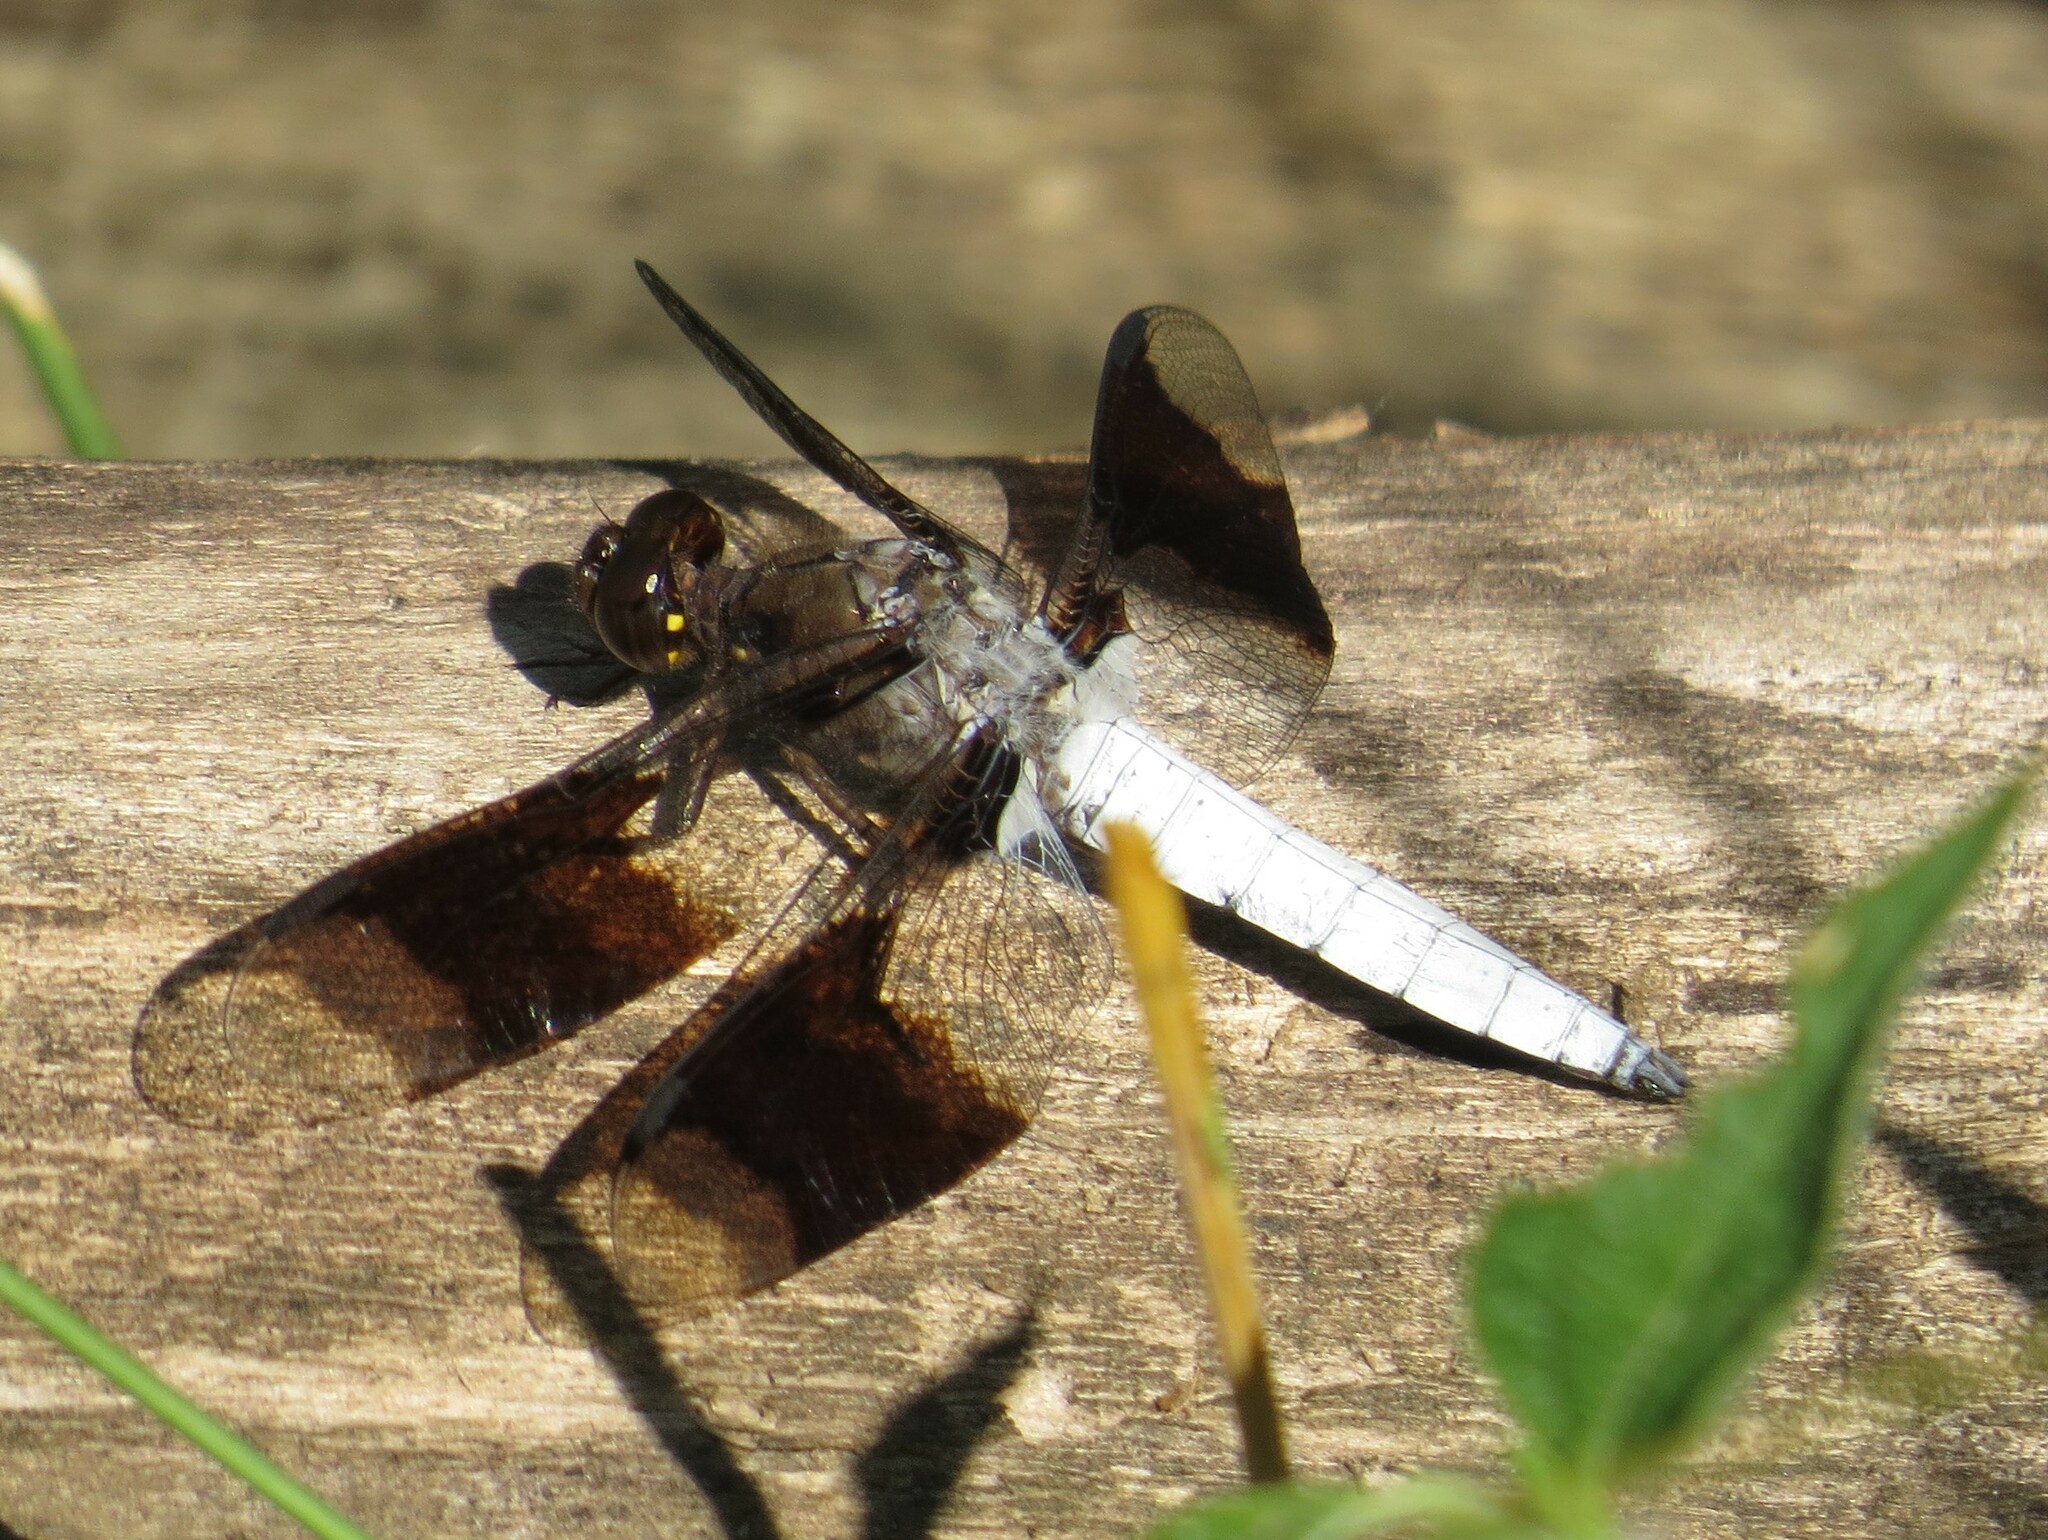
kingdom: Animalia
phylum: Arthropoda
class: Insecta
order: Odonata
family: Libellulidae
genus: Plathemis
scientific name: Plathemis lydia
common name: Common whitetail
